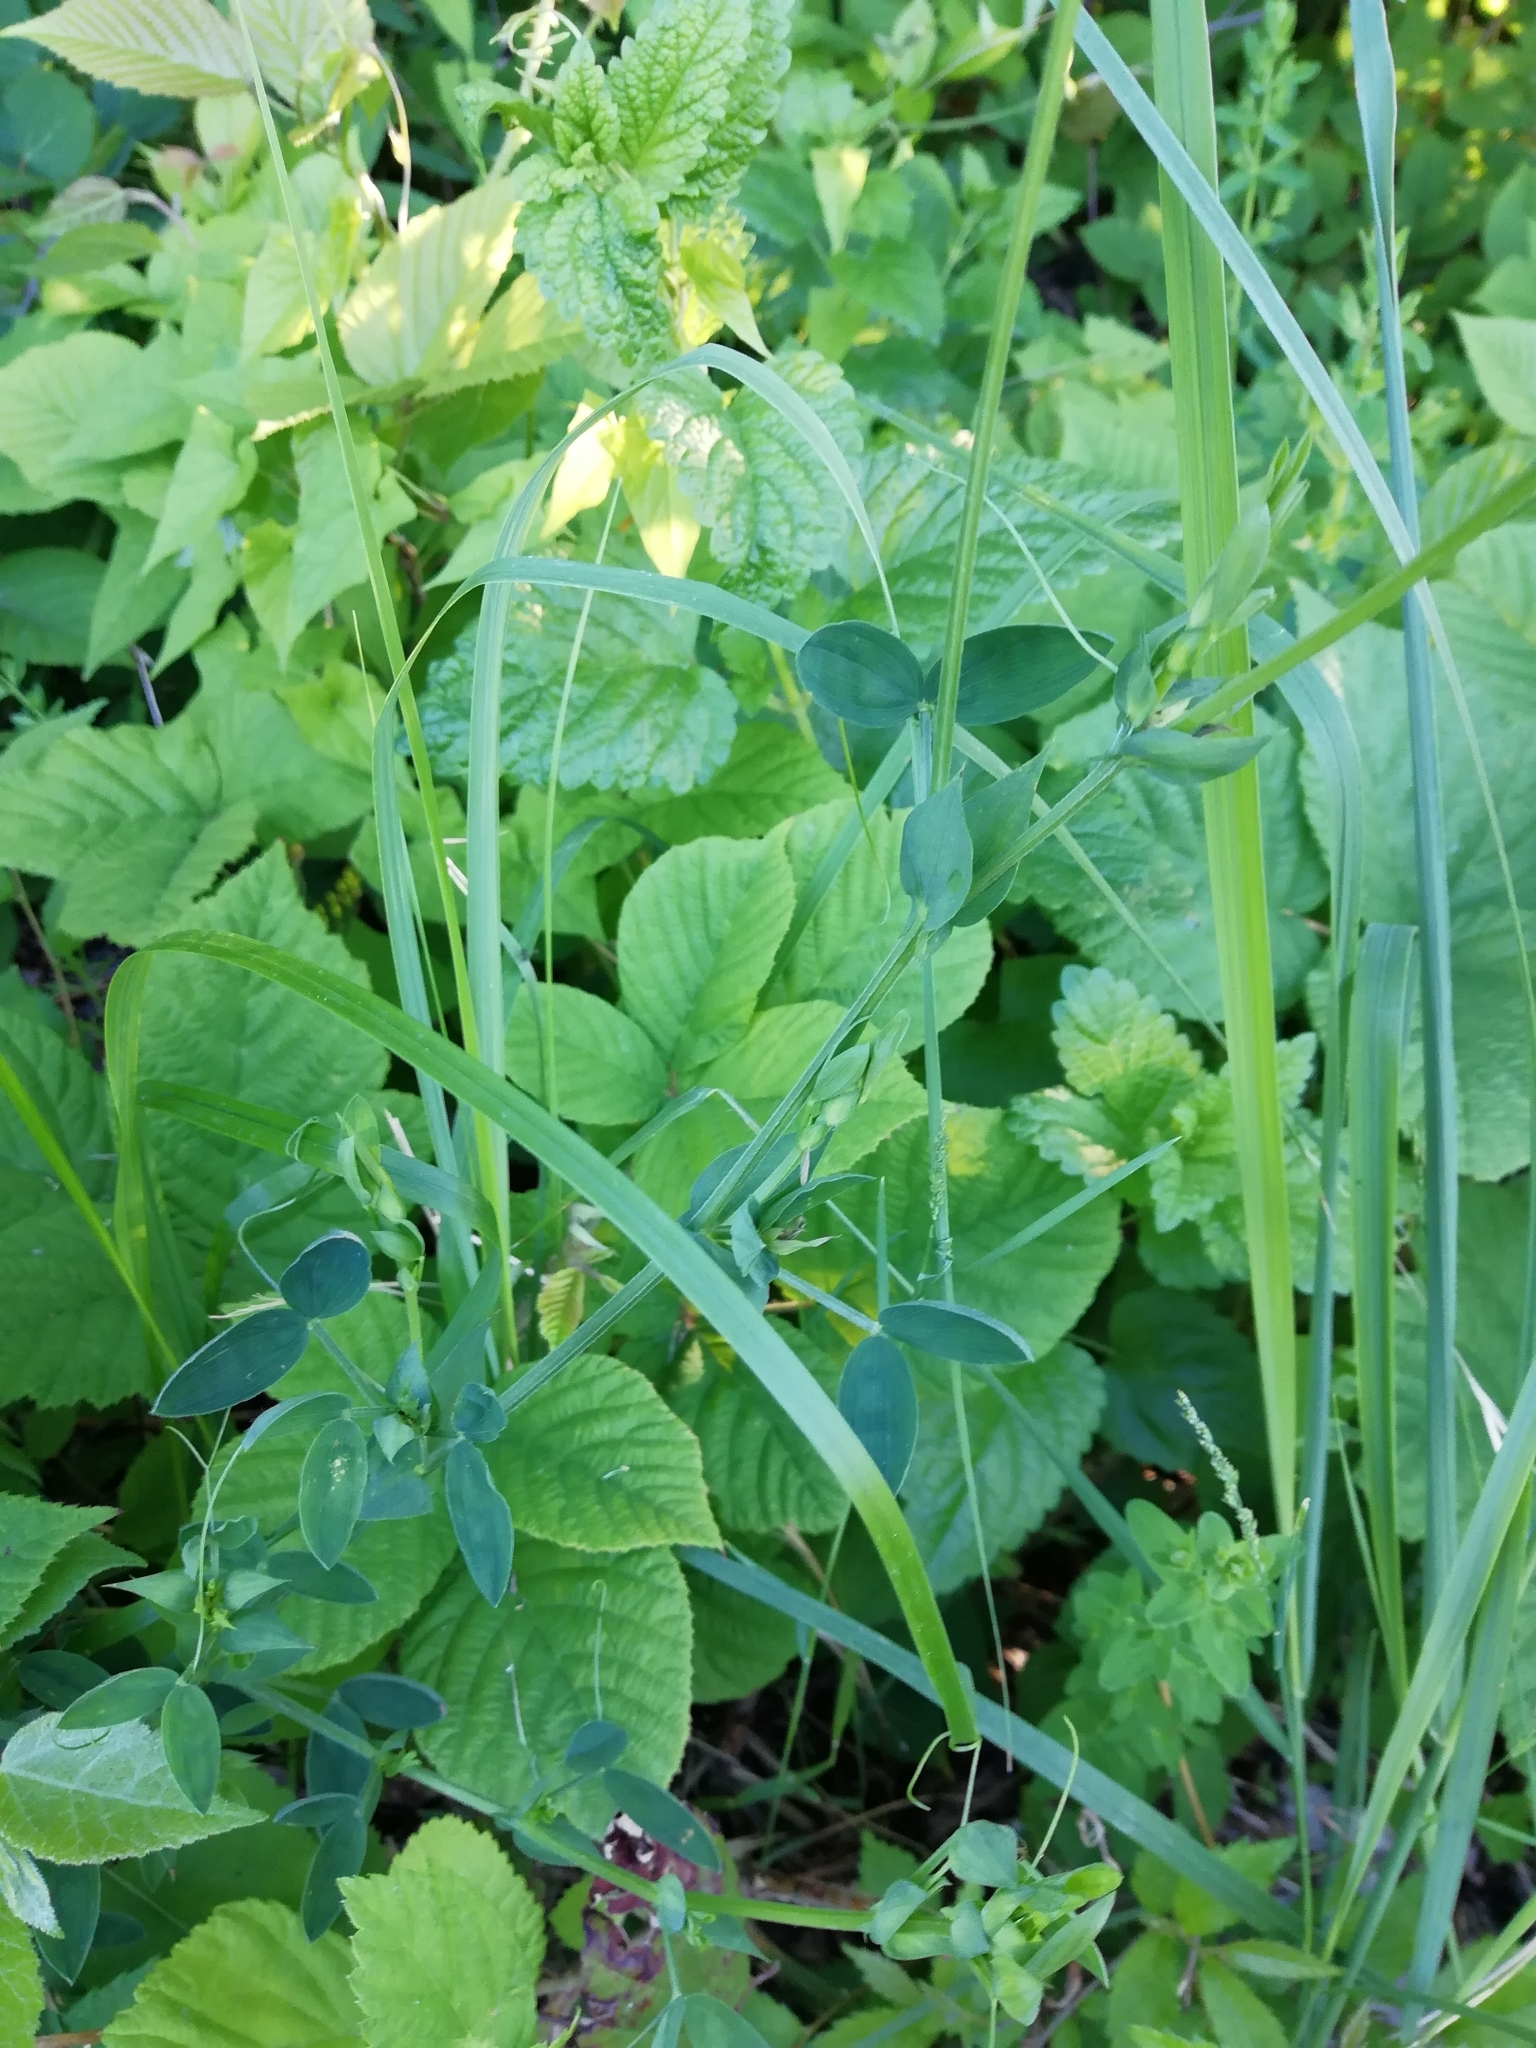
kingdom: Plantae
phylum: Tracheophyta
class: Magnoliopsida
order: Fabales
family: Fabaceae
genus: Lathyrus
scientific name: Lathyrus pratensis
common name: Meadow vetchling
